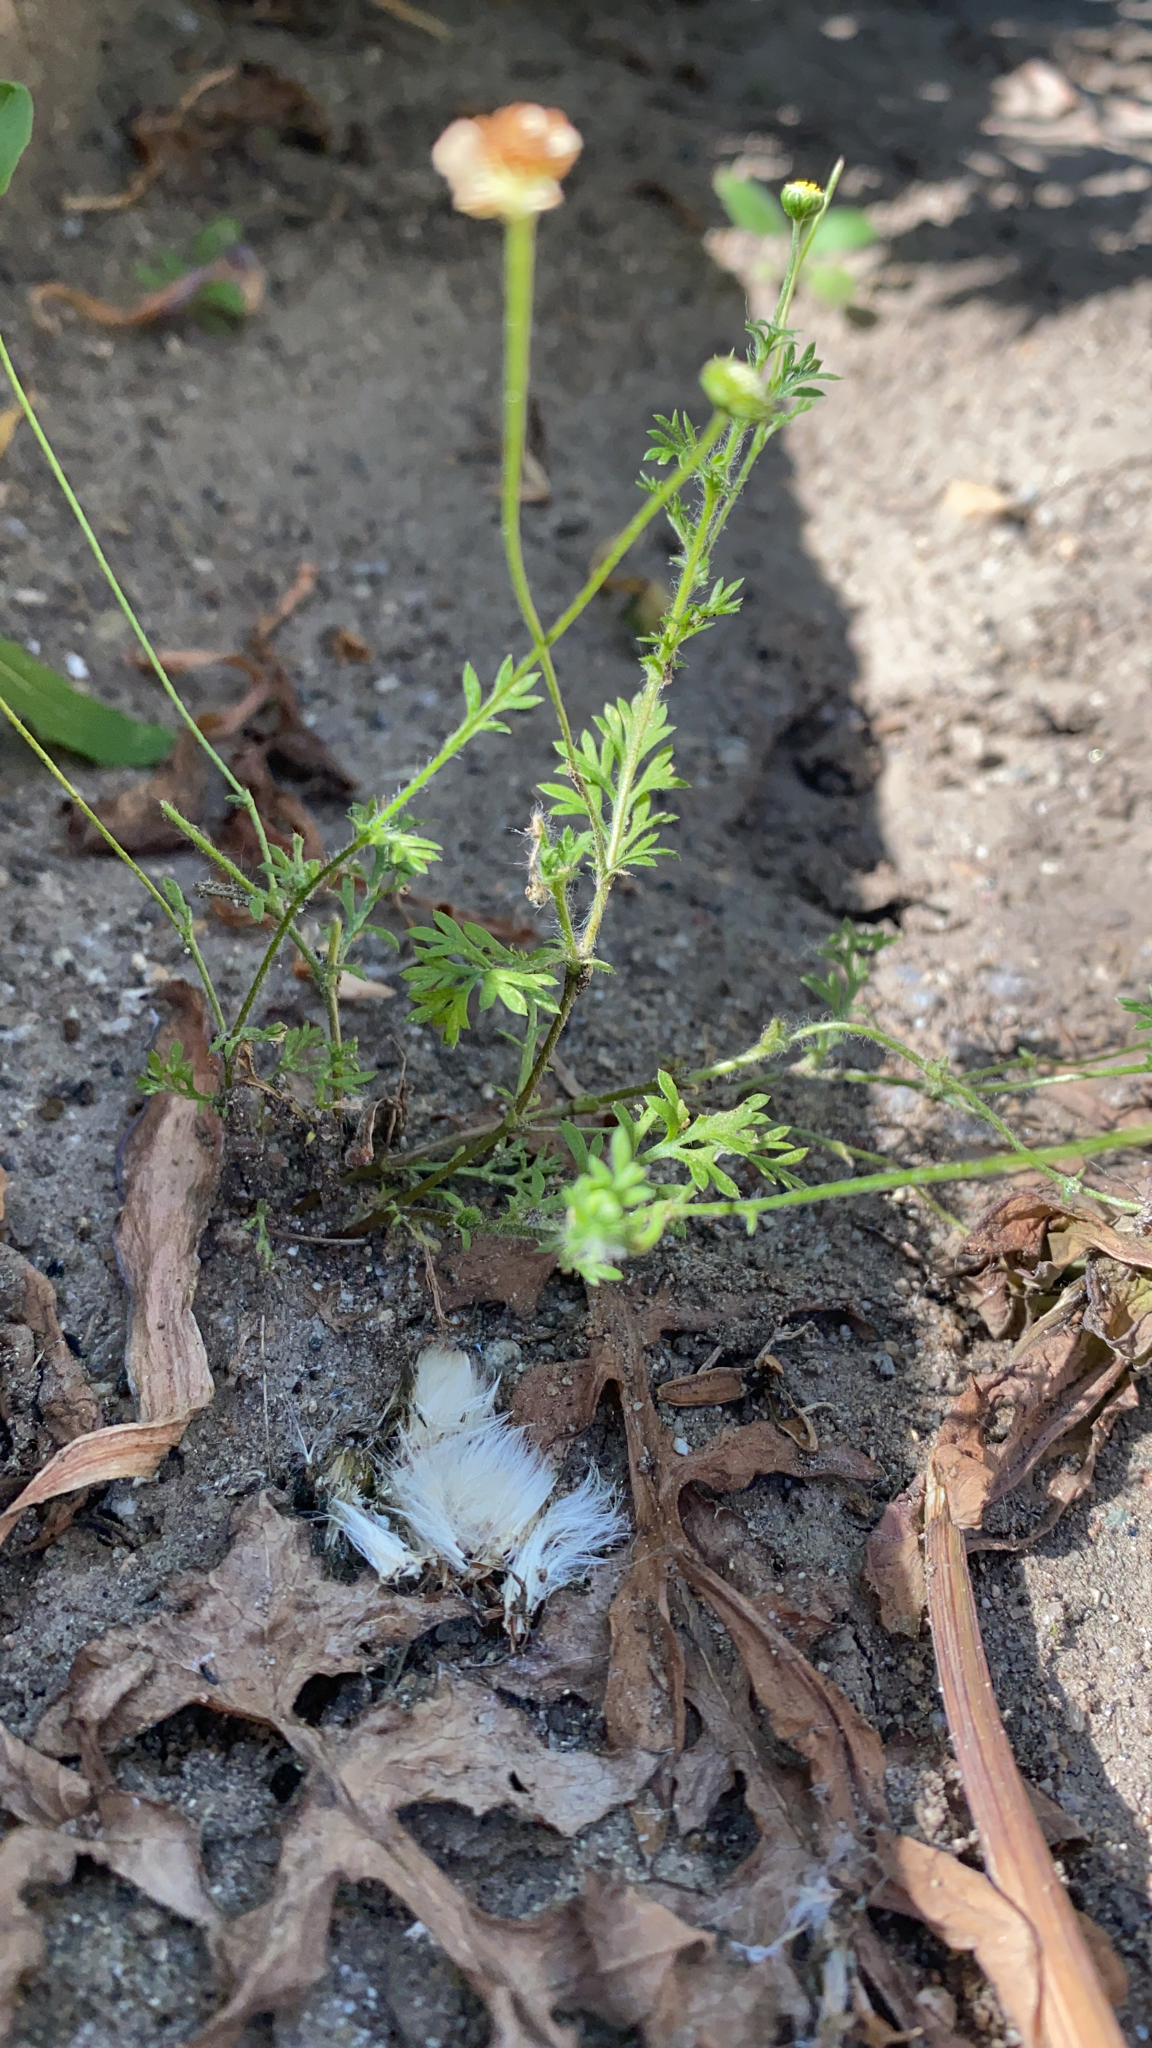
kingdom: Plantae
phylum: Tracheophyta
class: Magnoliopsida
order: Asterales
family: Asteraceae
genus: Cotula
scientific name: Cotula australis
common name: Australian waterbuttons
